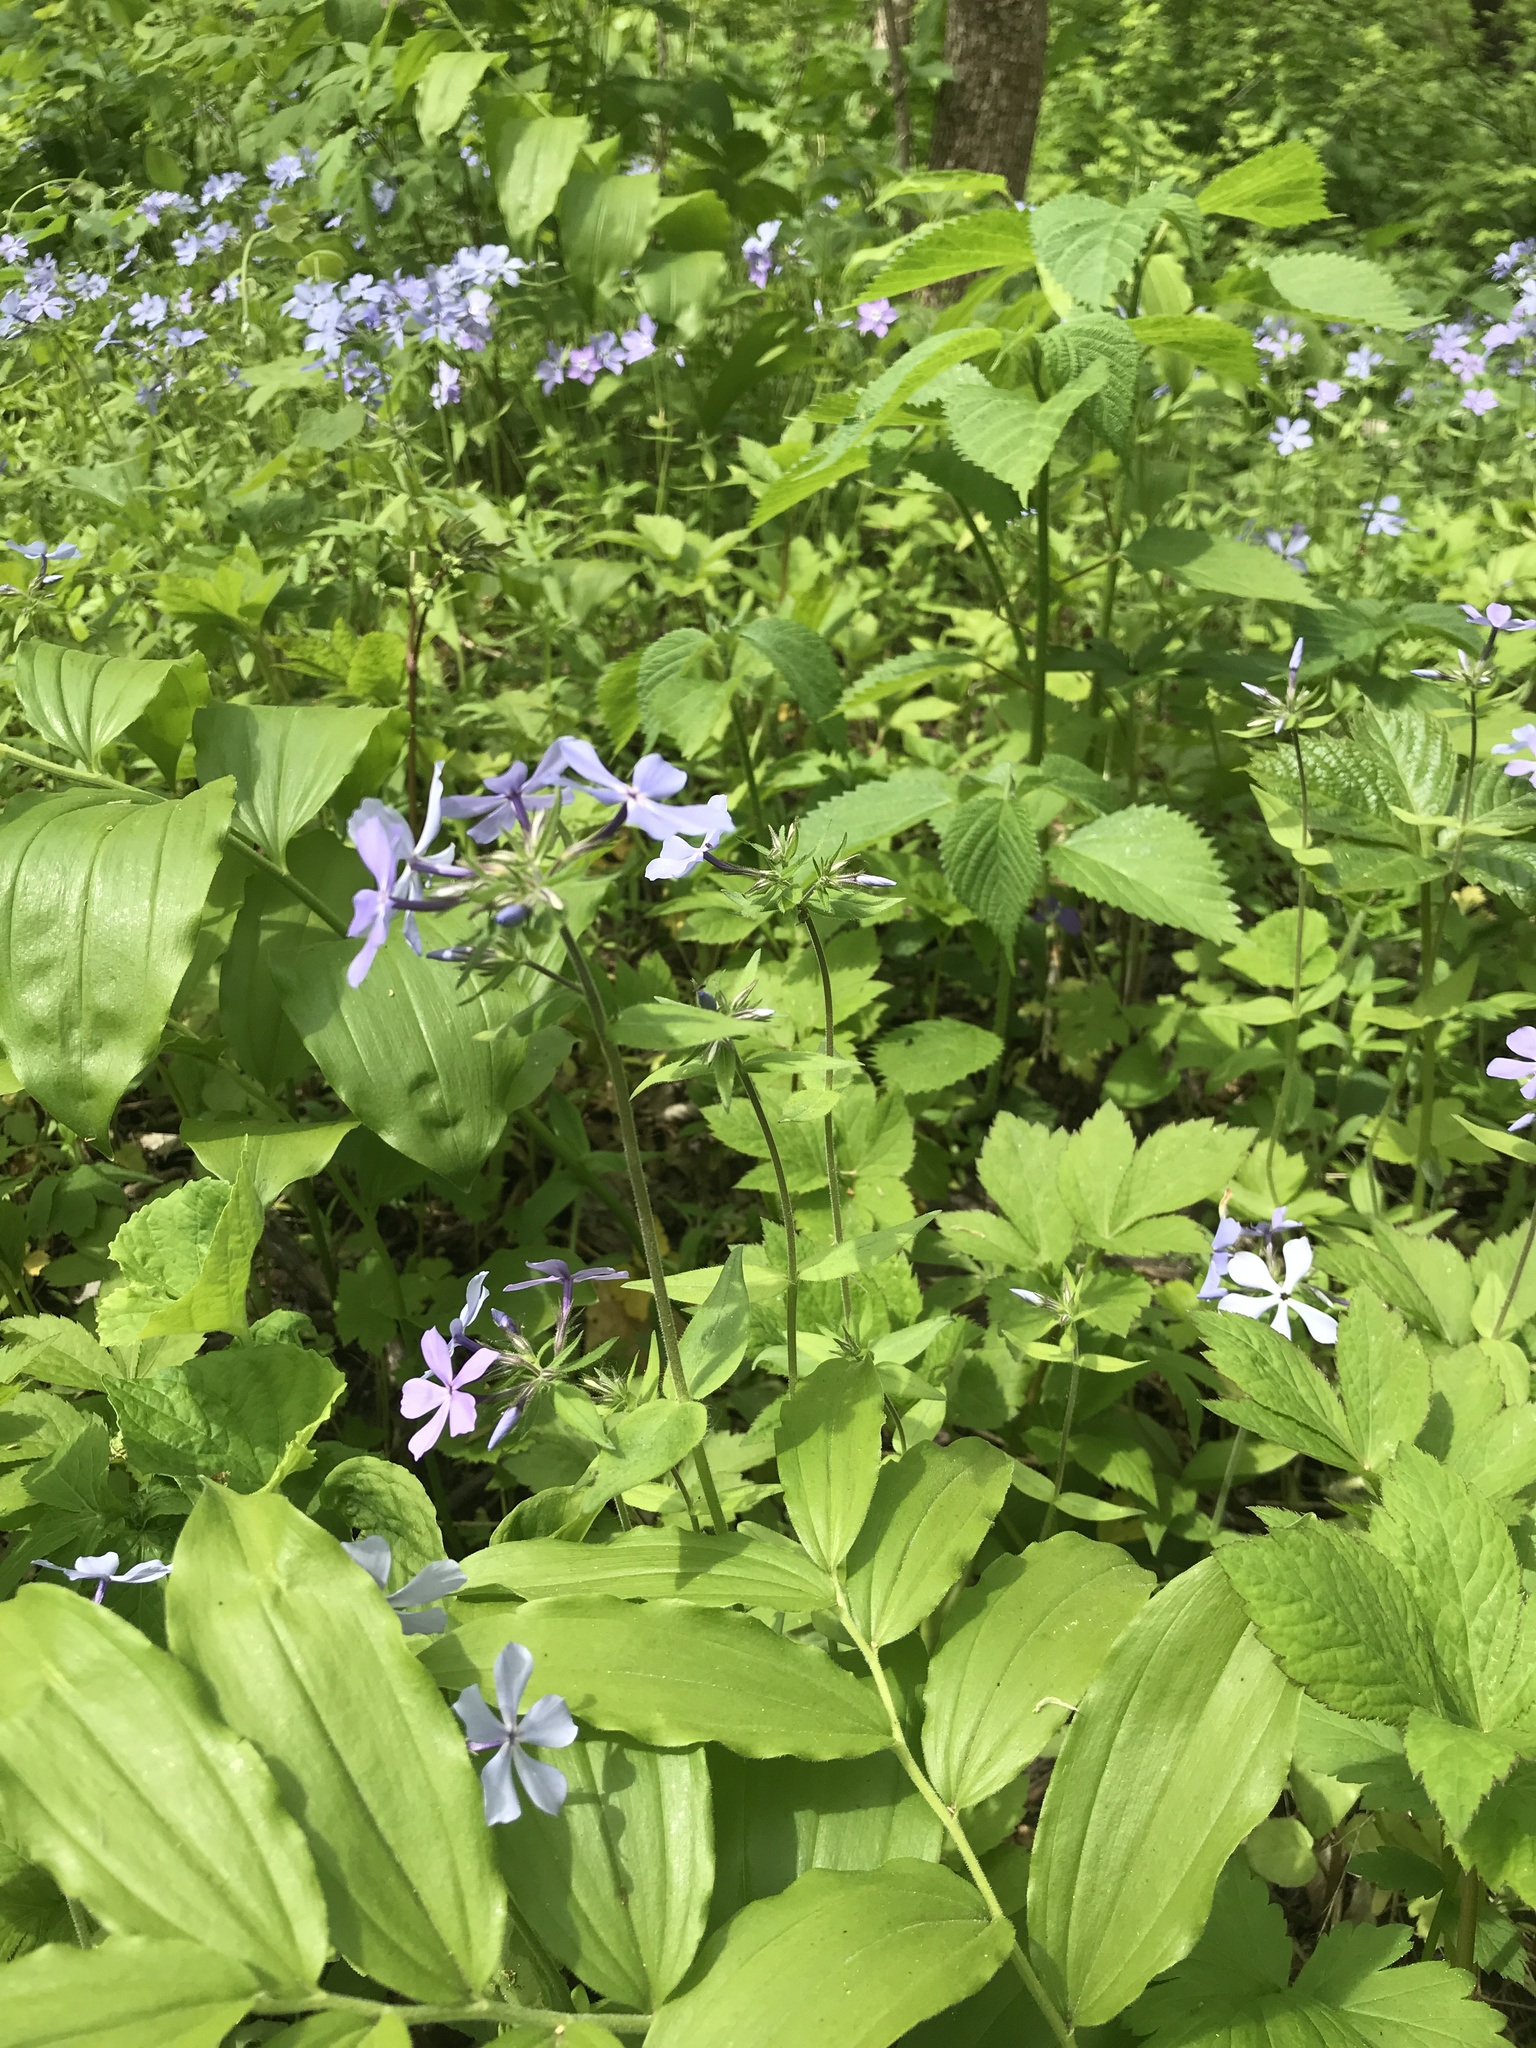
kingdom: Plantae
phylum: Tracheophyta
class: Magnoliopsida
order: Ericales
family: Polemoniaceae
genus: Phlox
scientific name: Phlox divaricata
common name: Blue phlox
